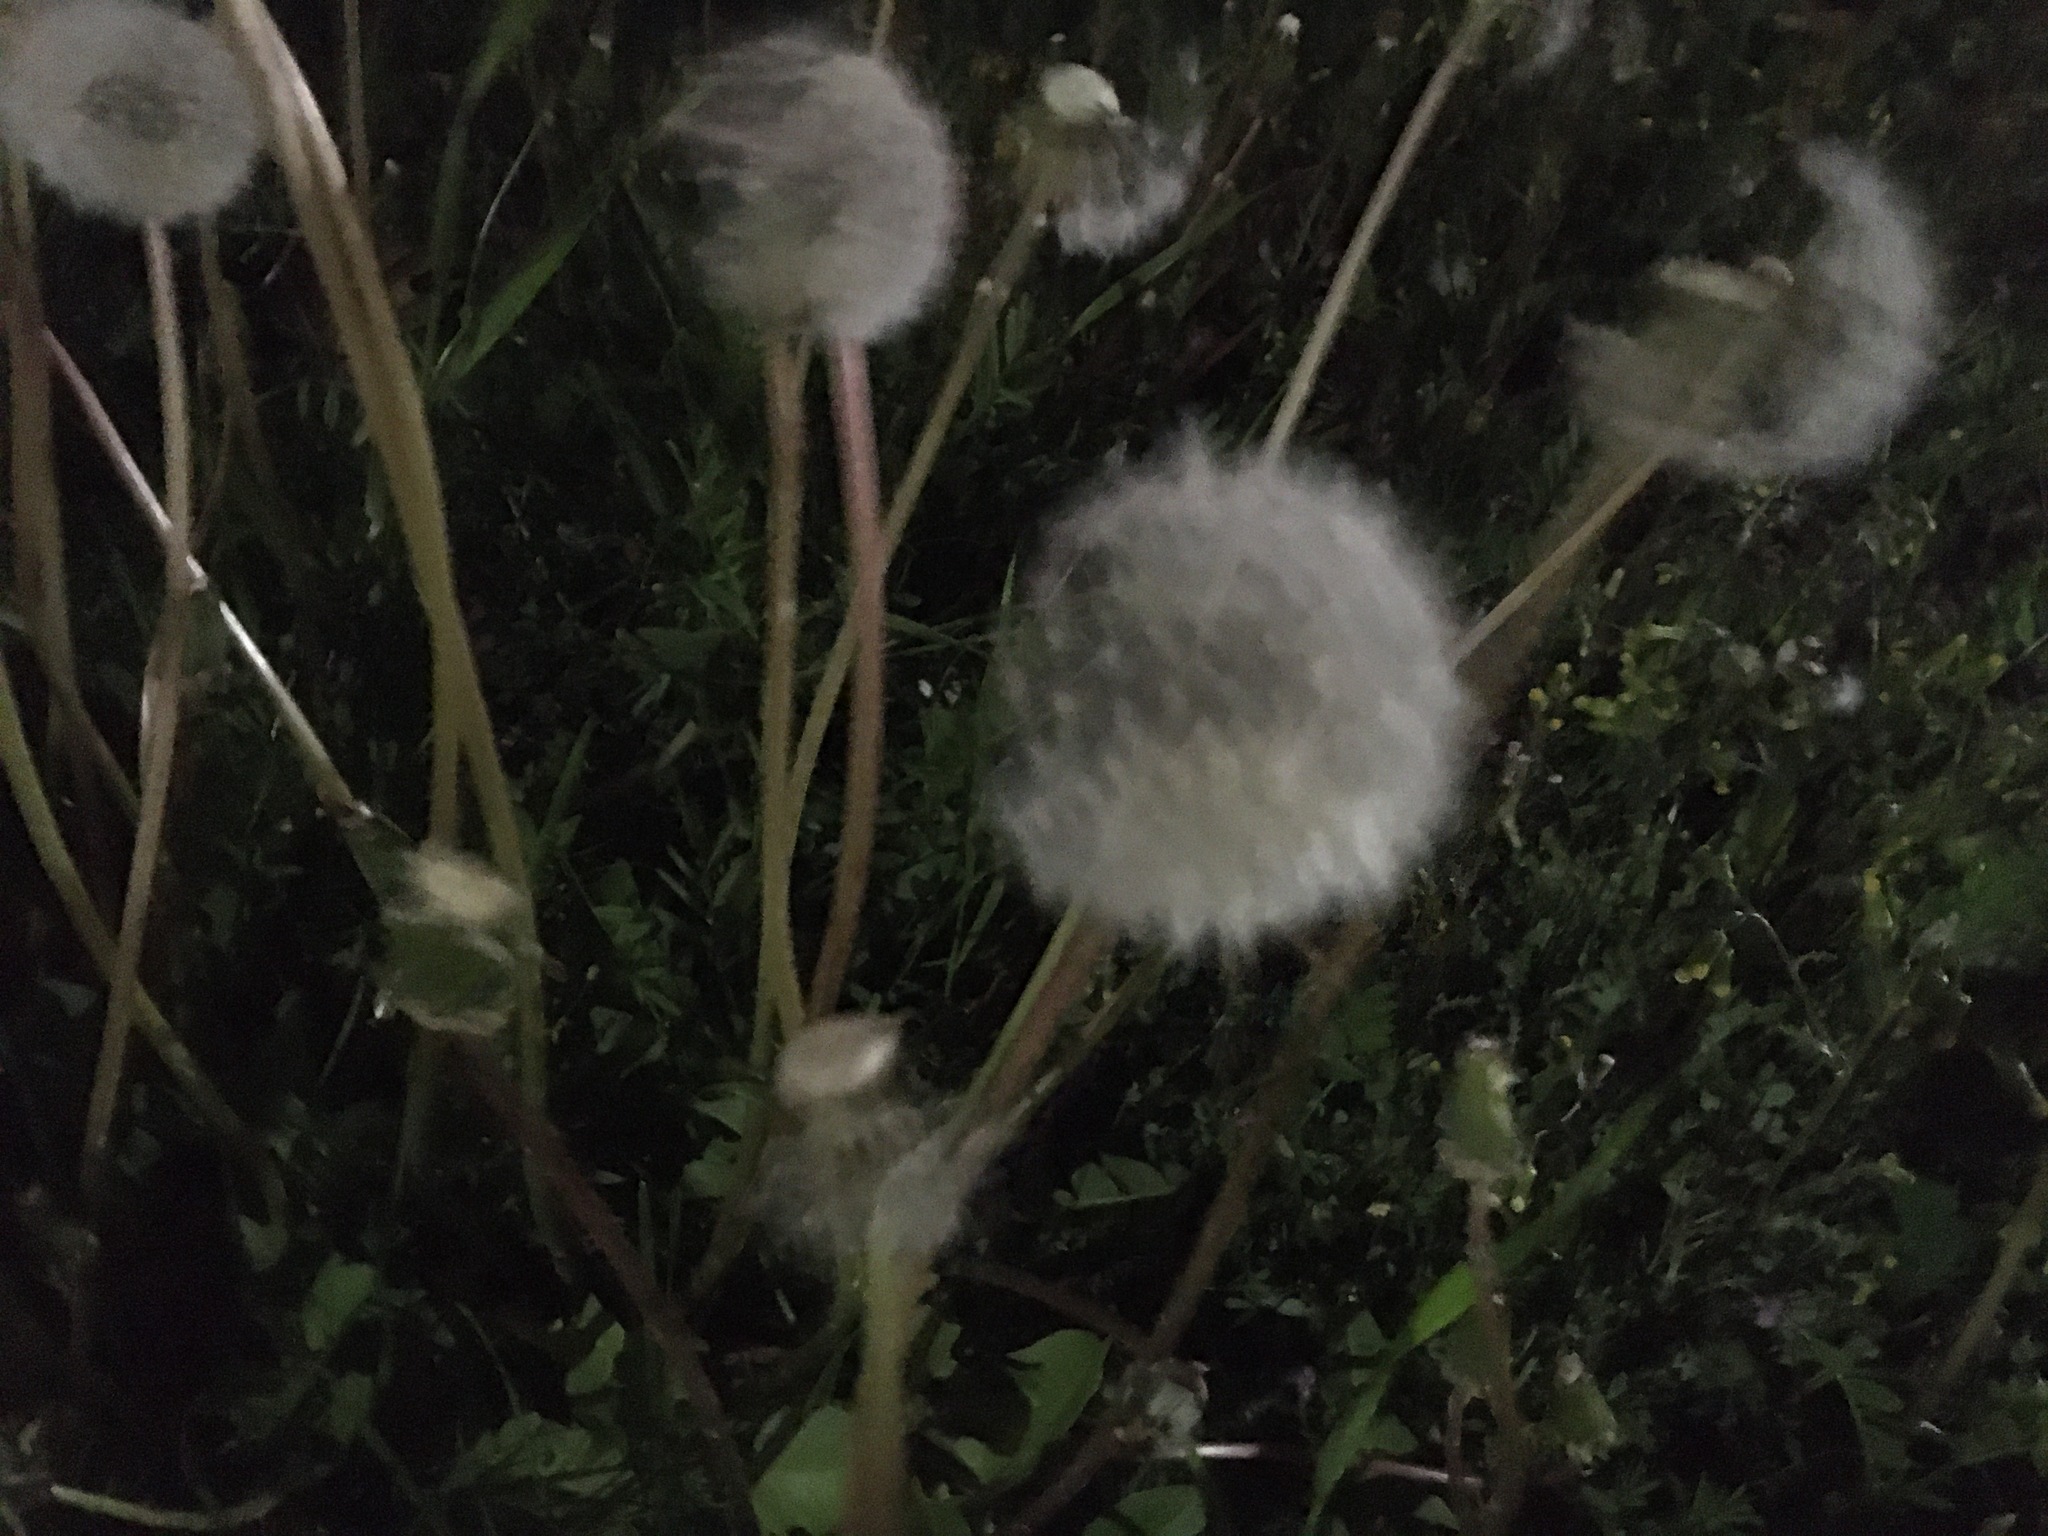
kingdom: Plantae
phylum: Tracheophyta
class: Magnoliopsida
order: Asterales
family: Asteraceae
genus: Taraxacum
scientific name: Taraxacum officinale
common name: Common dandelion
